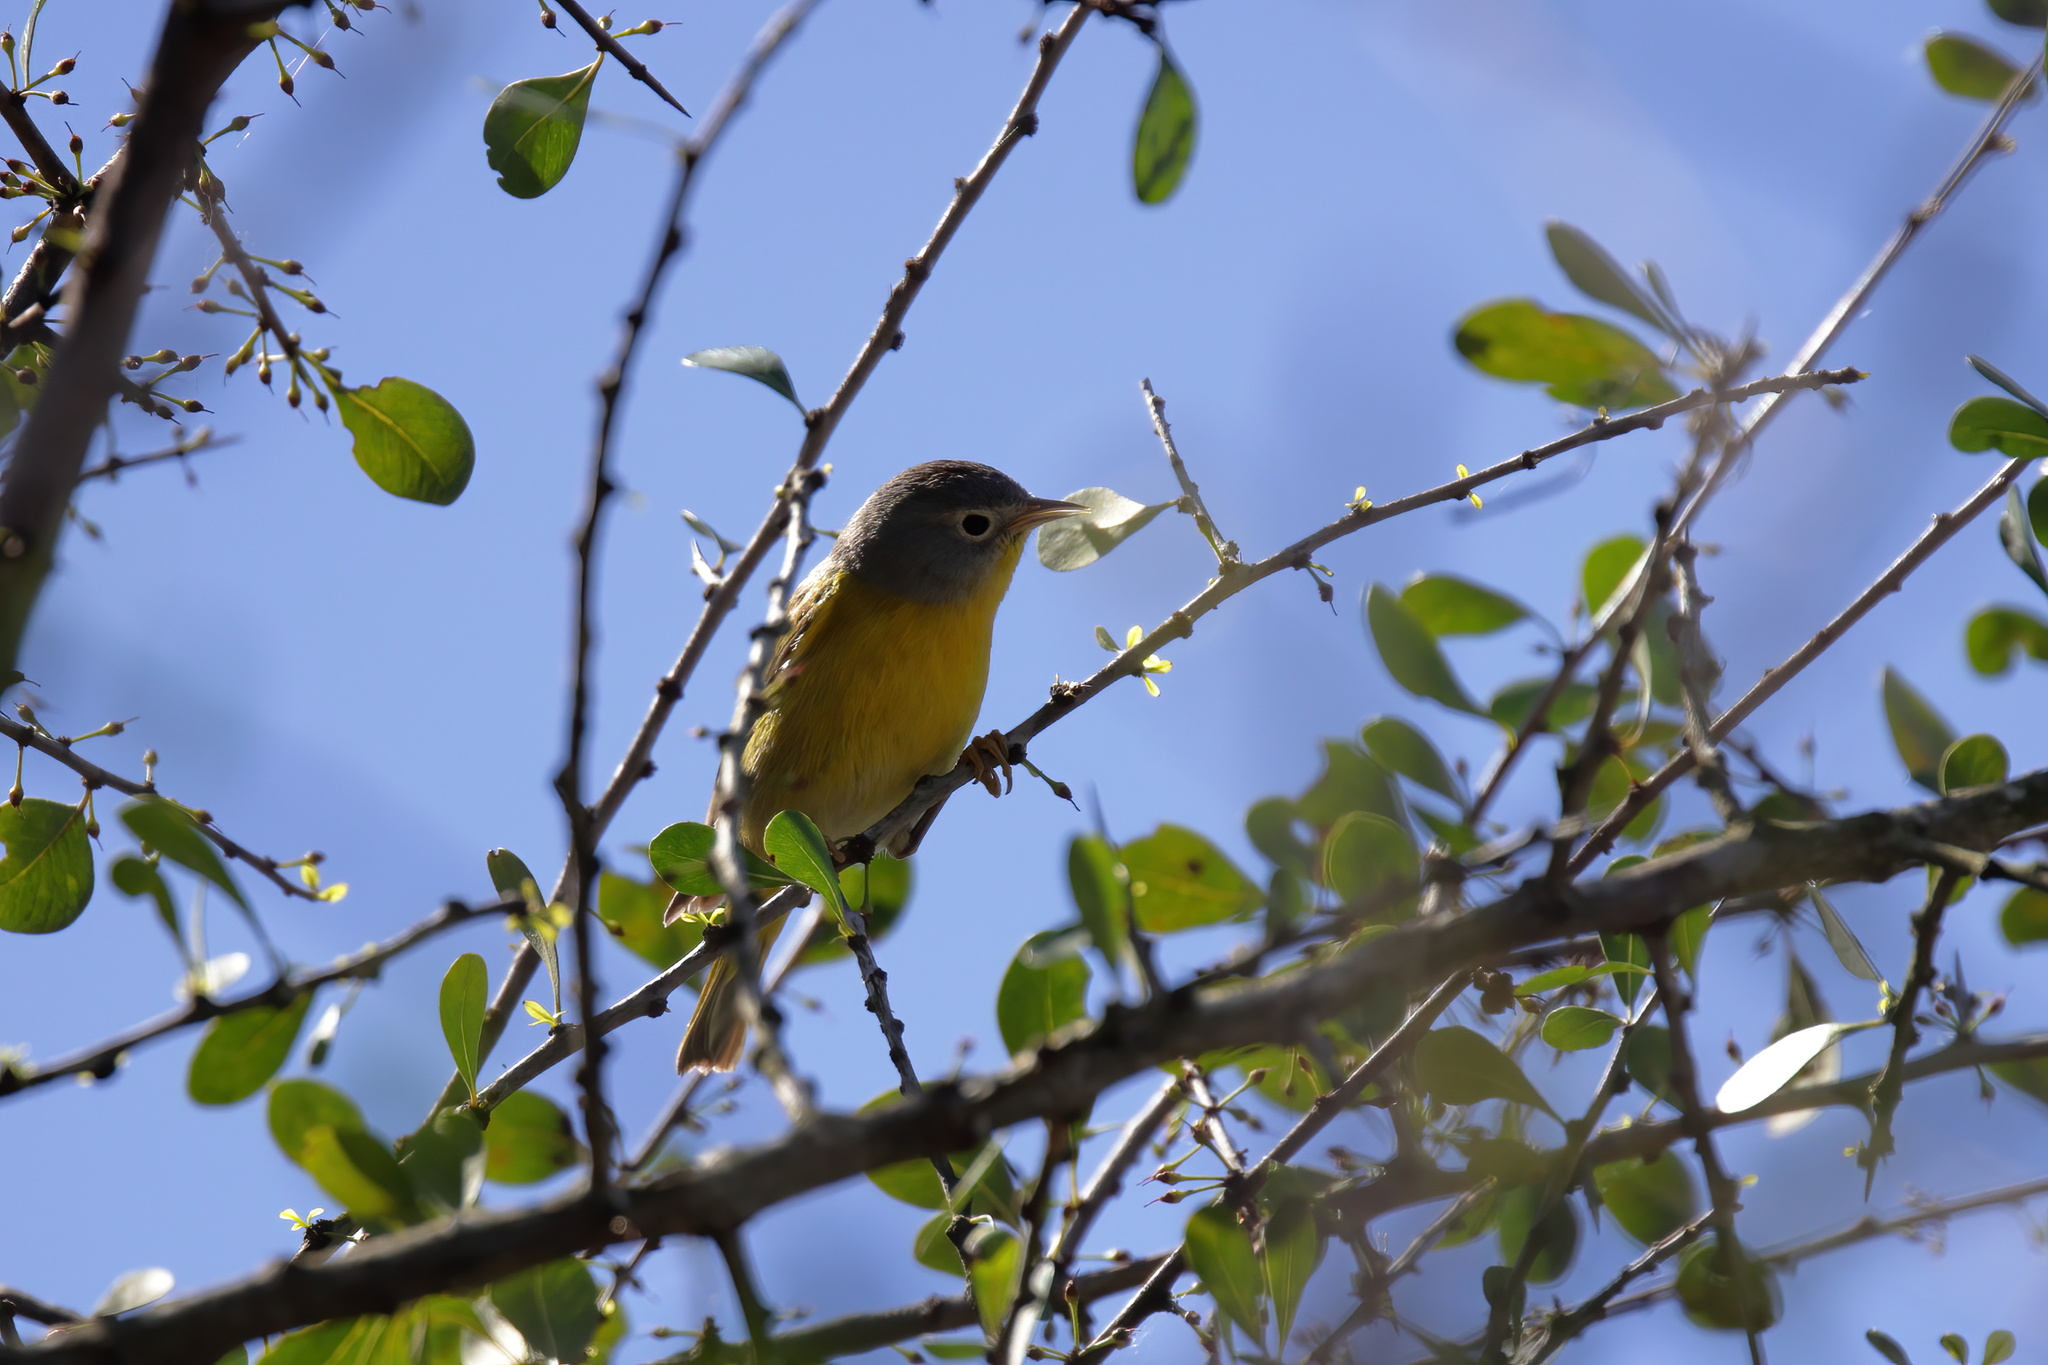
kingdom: Animalia
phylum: Chordata
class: Aves
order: Passeriformes
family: Parulidae
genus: Leiothlypis
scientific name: Leiothlypis ruficapilla
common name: Nashville warbler
